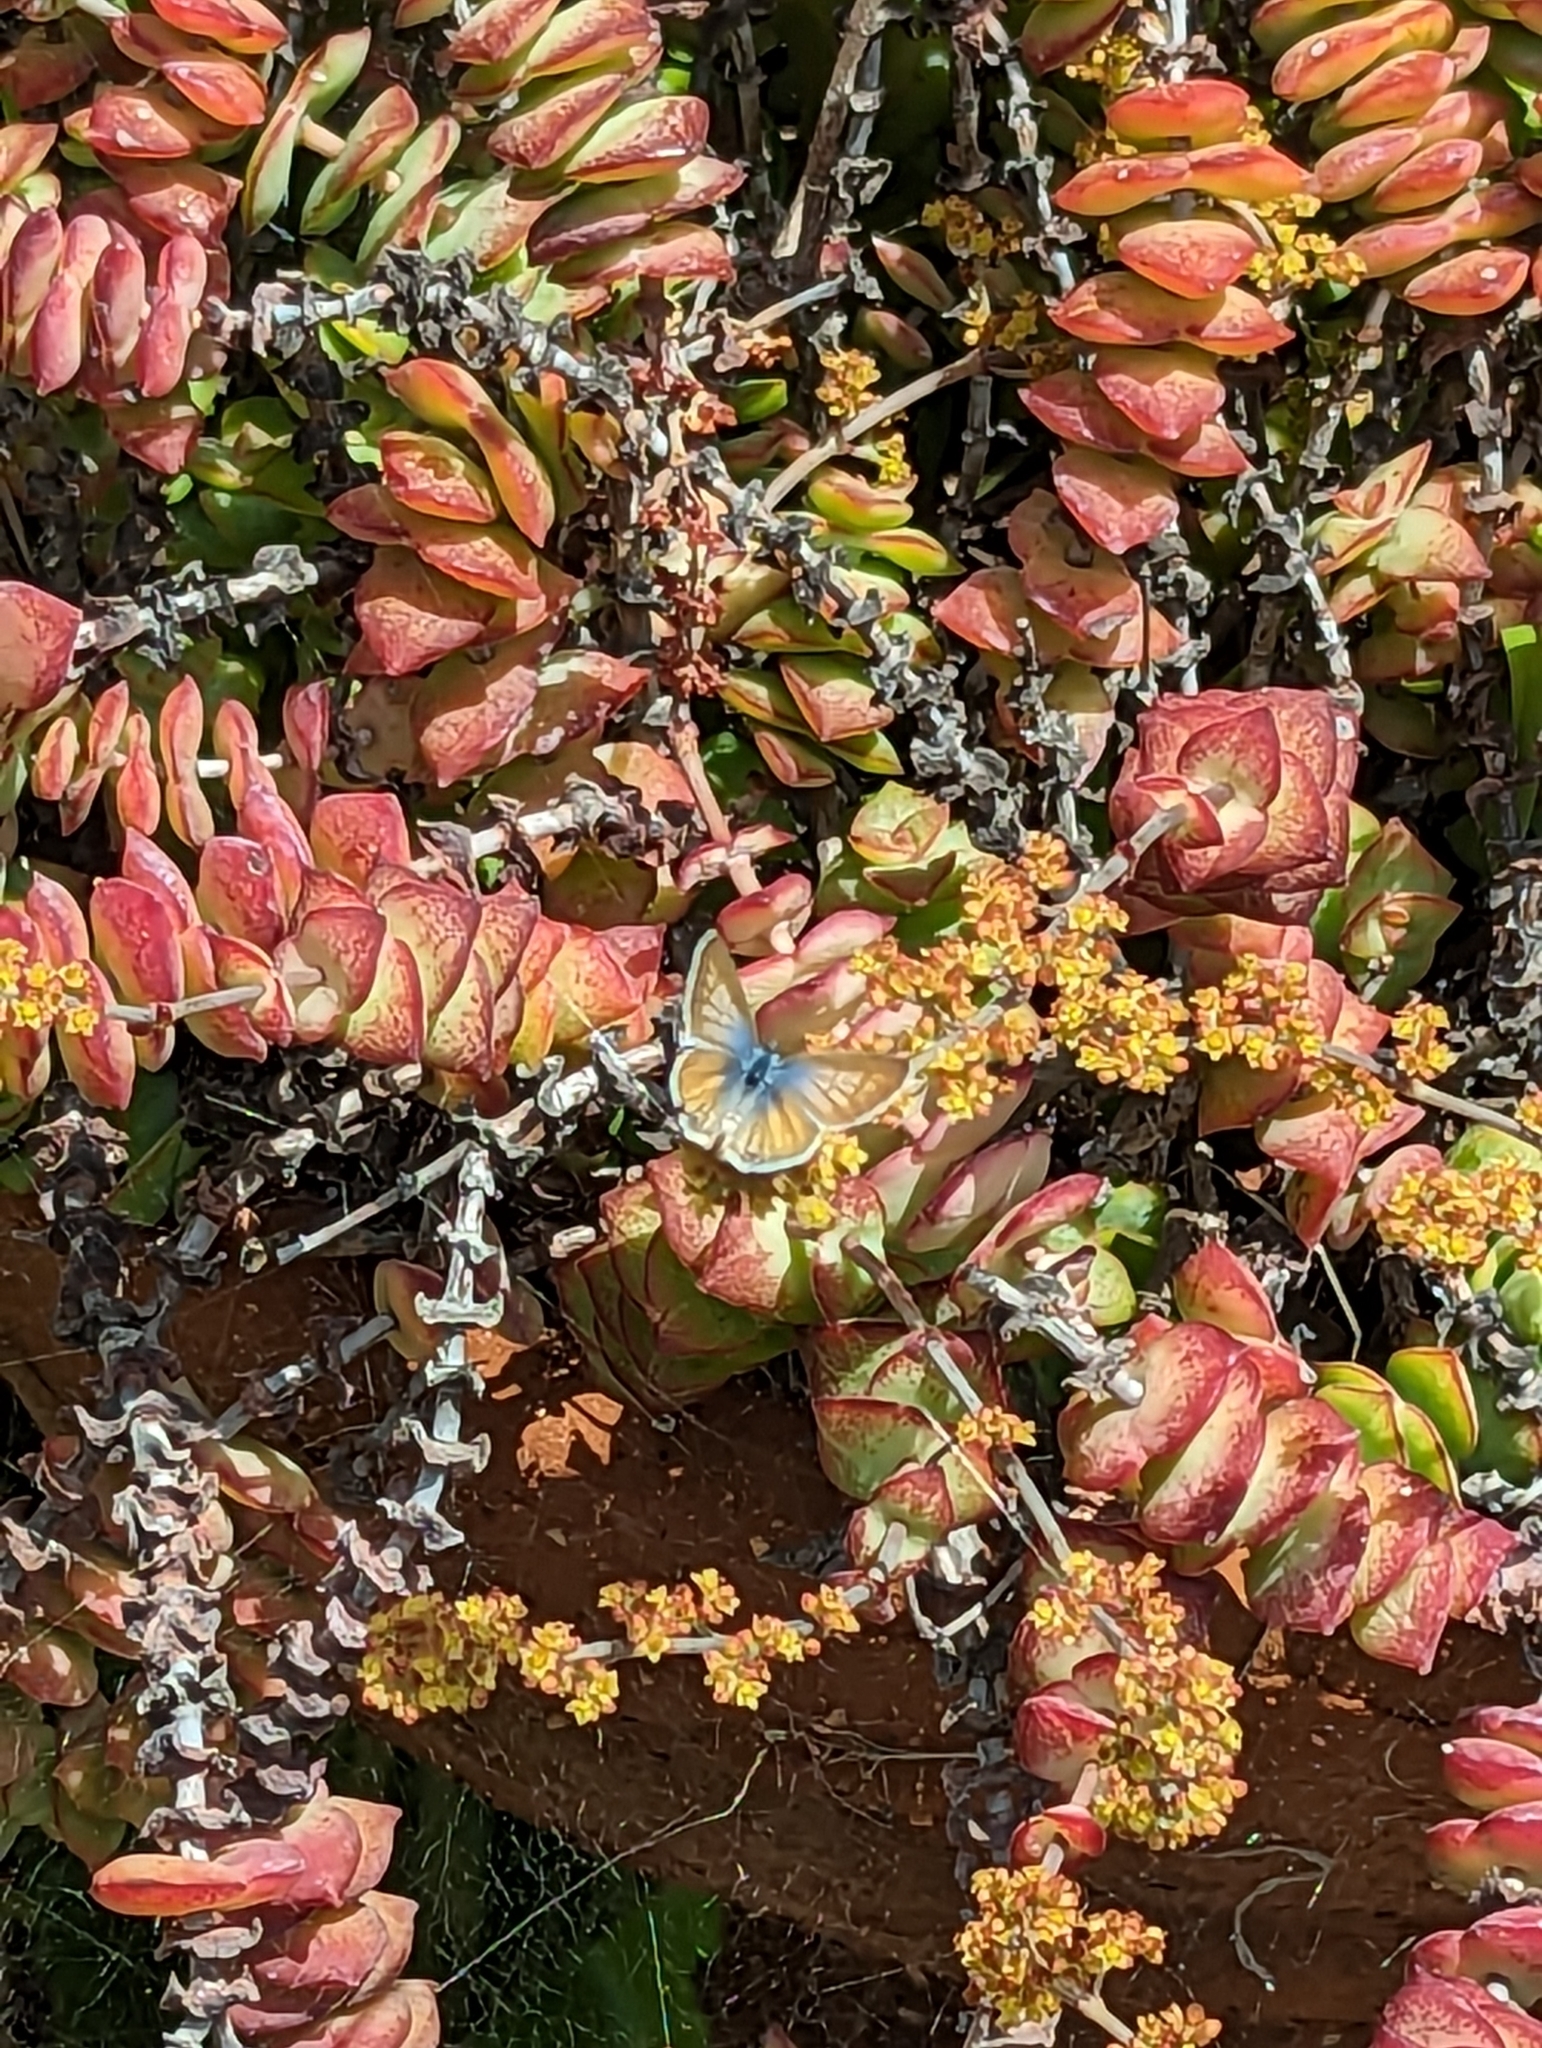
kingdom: Animalia
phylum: Arthropoda
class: Insecta
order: Lepidoptera
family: Lycaenidae
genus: Leptotes
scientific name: Leptotes marina
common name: Marine blue
